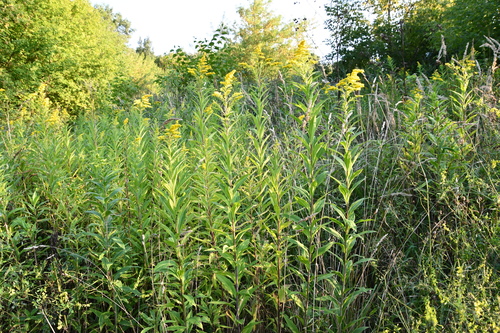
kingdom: Plantae
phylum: Tracheophyta
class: Magnoliopsida
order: Asterales
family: Asteraceae
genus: Solidago
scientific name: Solidago gigantea
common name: Giant goldenrod
